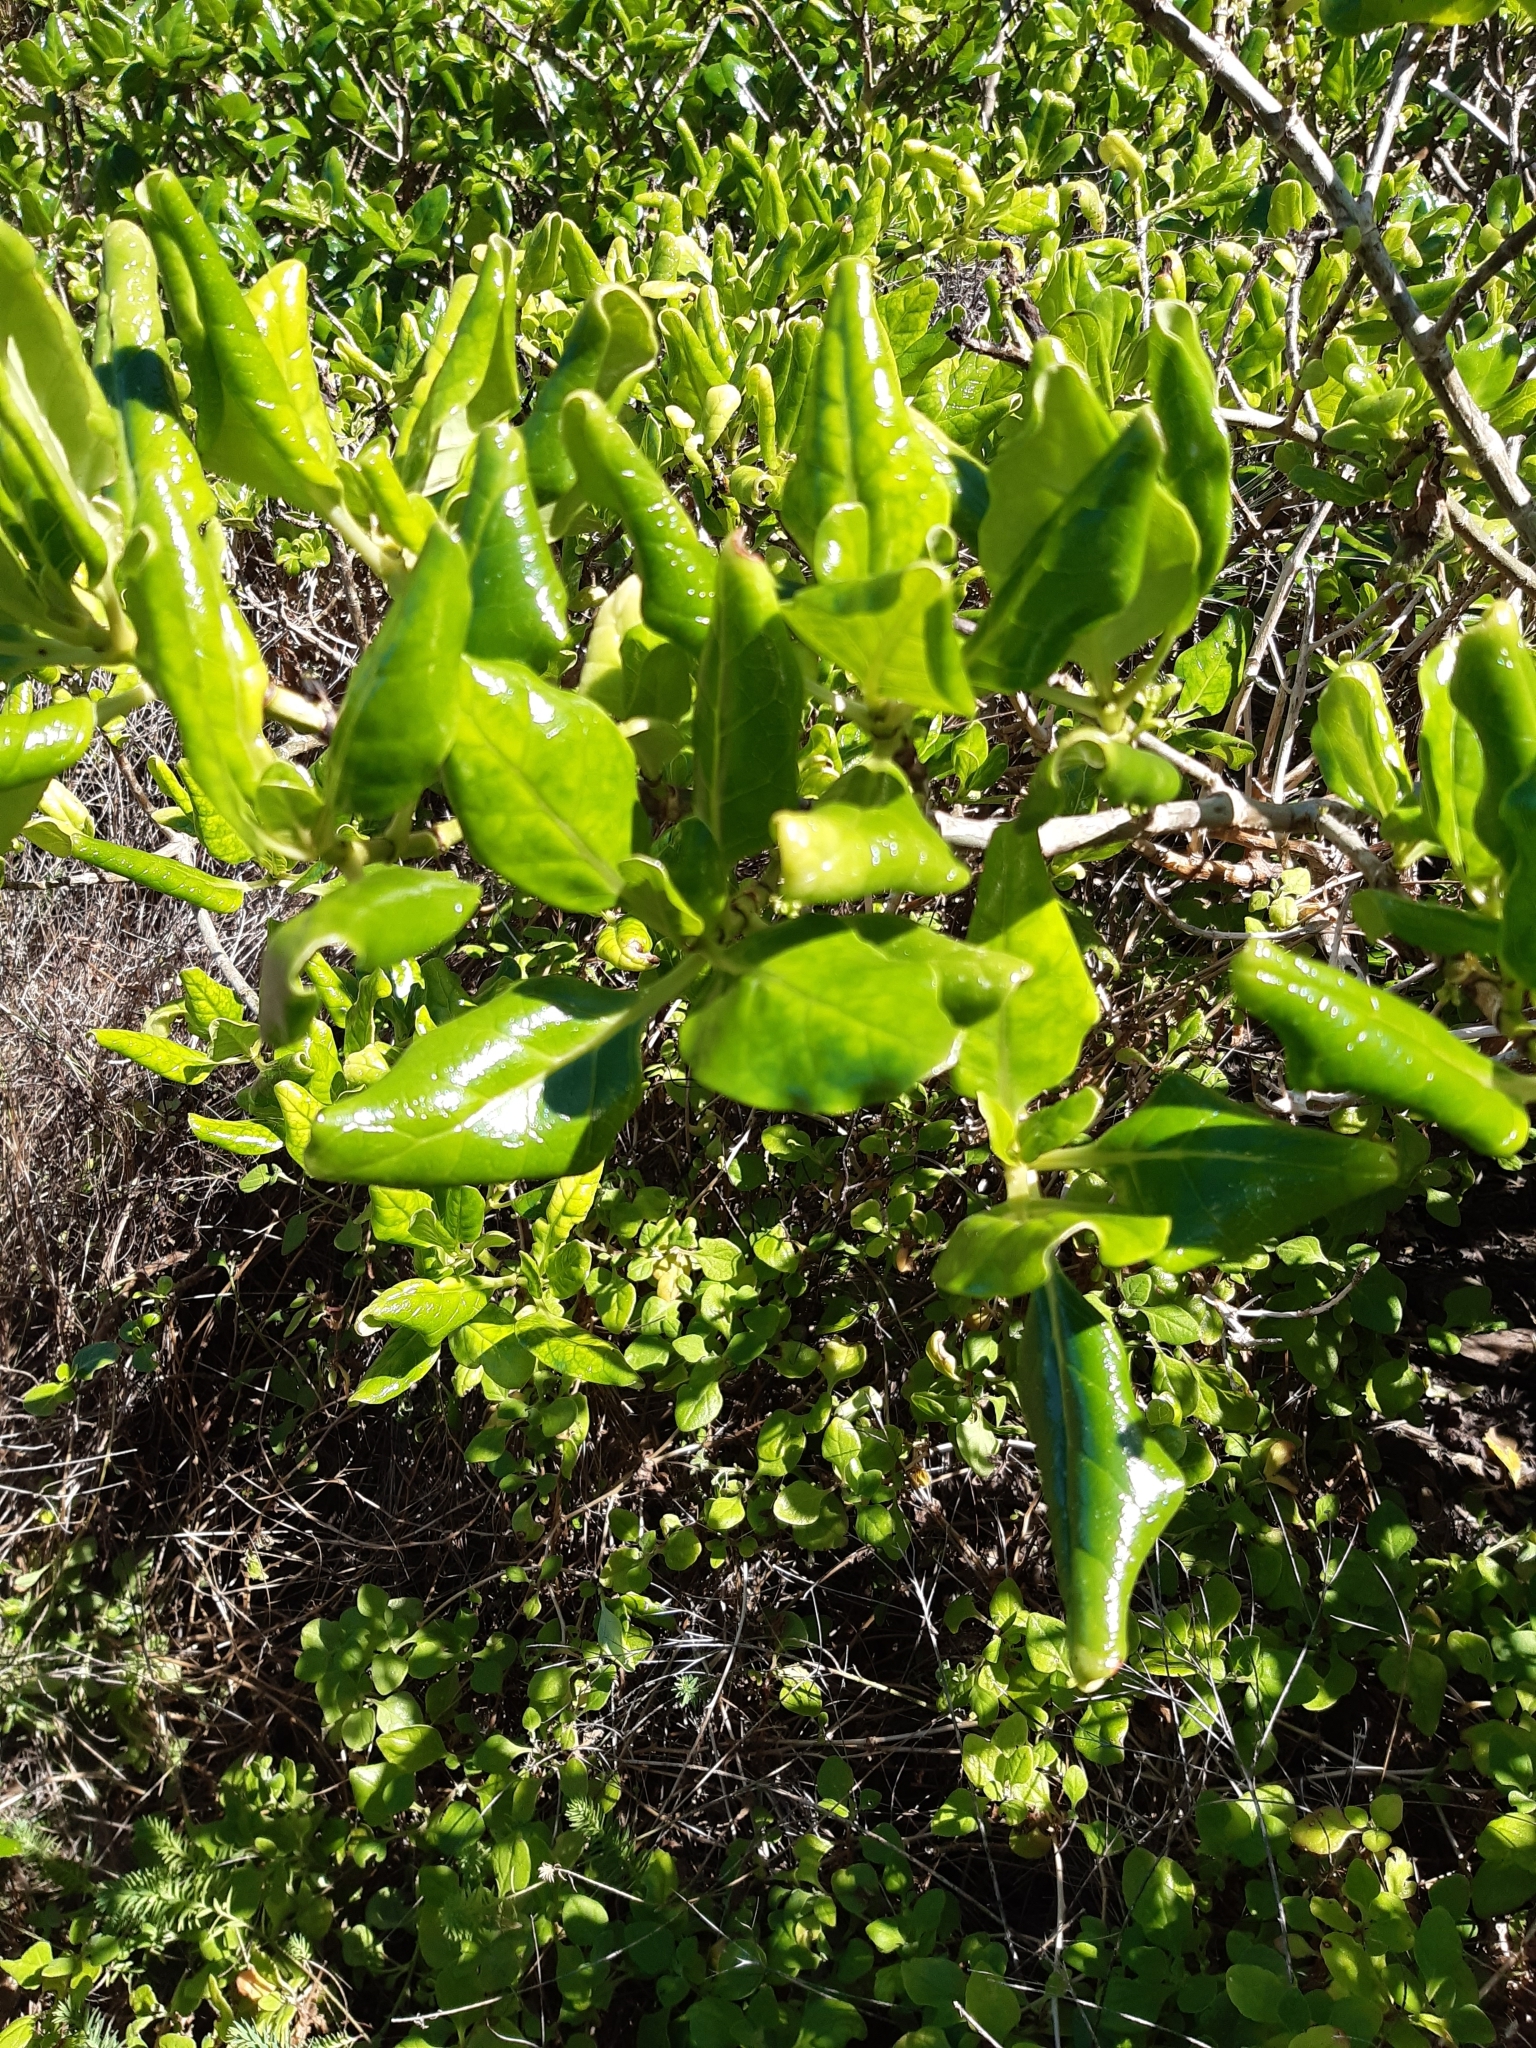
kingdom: Plantae
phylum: Tracheophyta
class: Magnoliopsida
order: Gentianales
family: Rubiaceae
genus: Coprosma
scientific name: Coprosma repens
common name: Tree bedstraw
